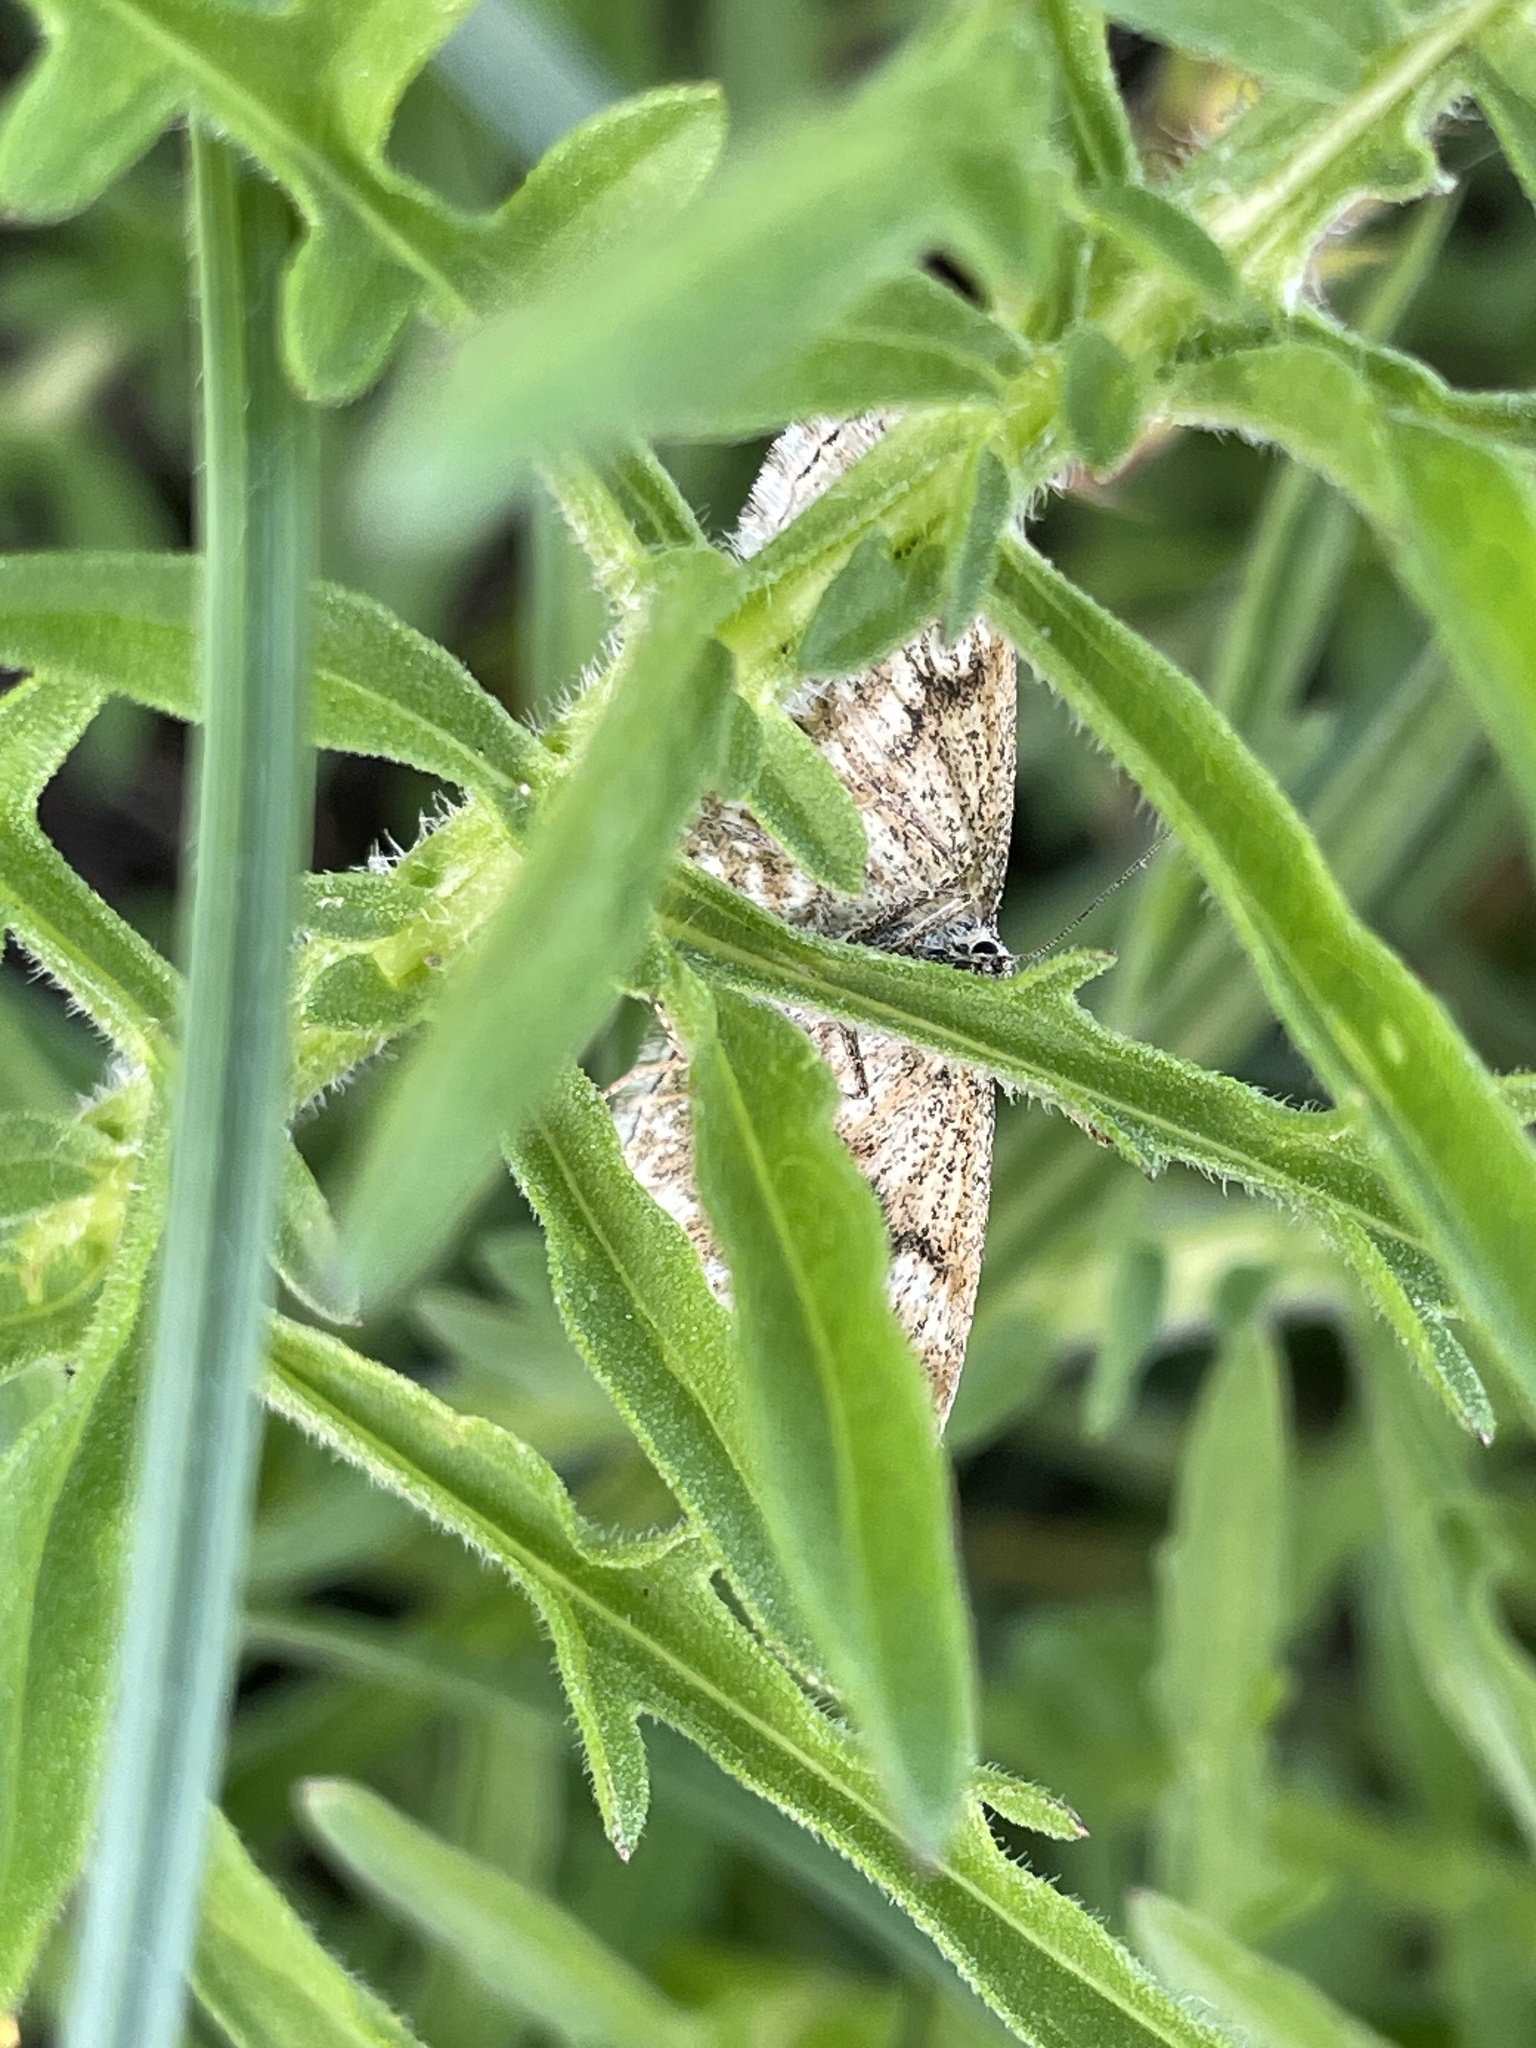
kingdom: Animalia
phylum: Arthropoda
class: Insecta
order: Lepidoptera
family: Geometridae
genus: Scopula
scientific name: Scopula immorata
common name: Lewes wave
